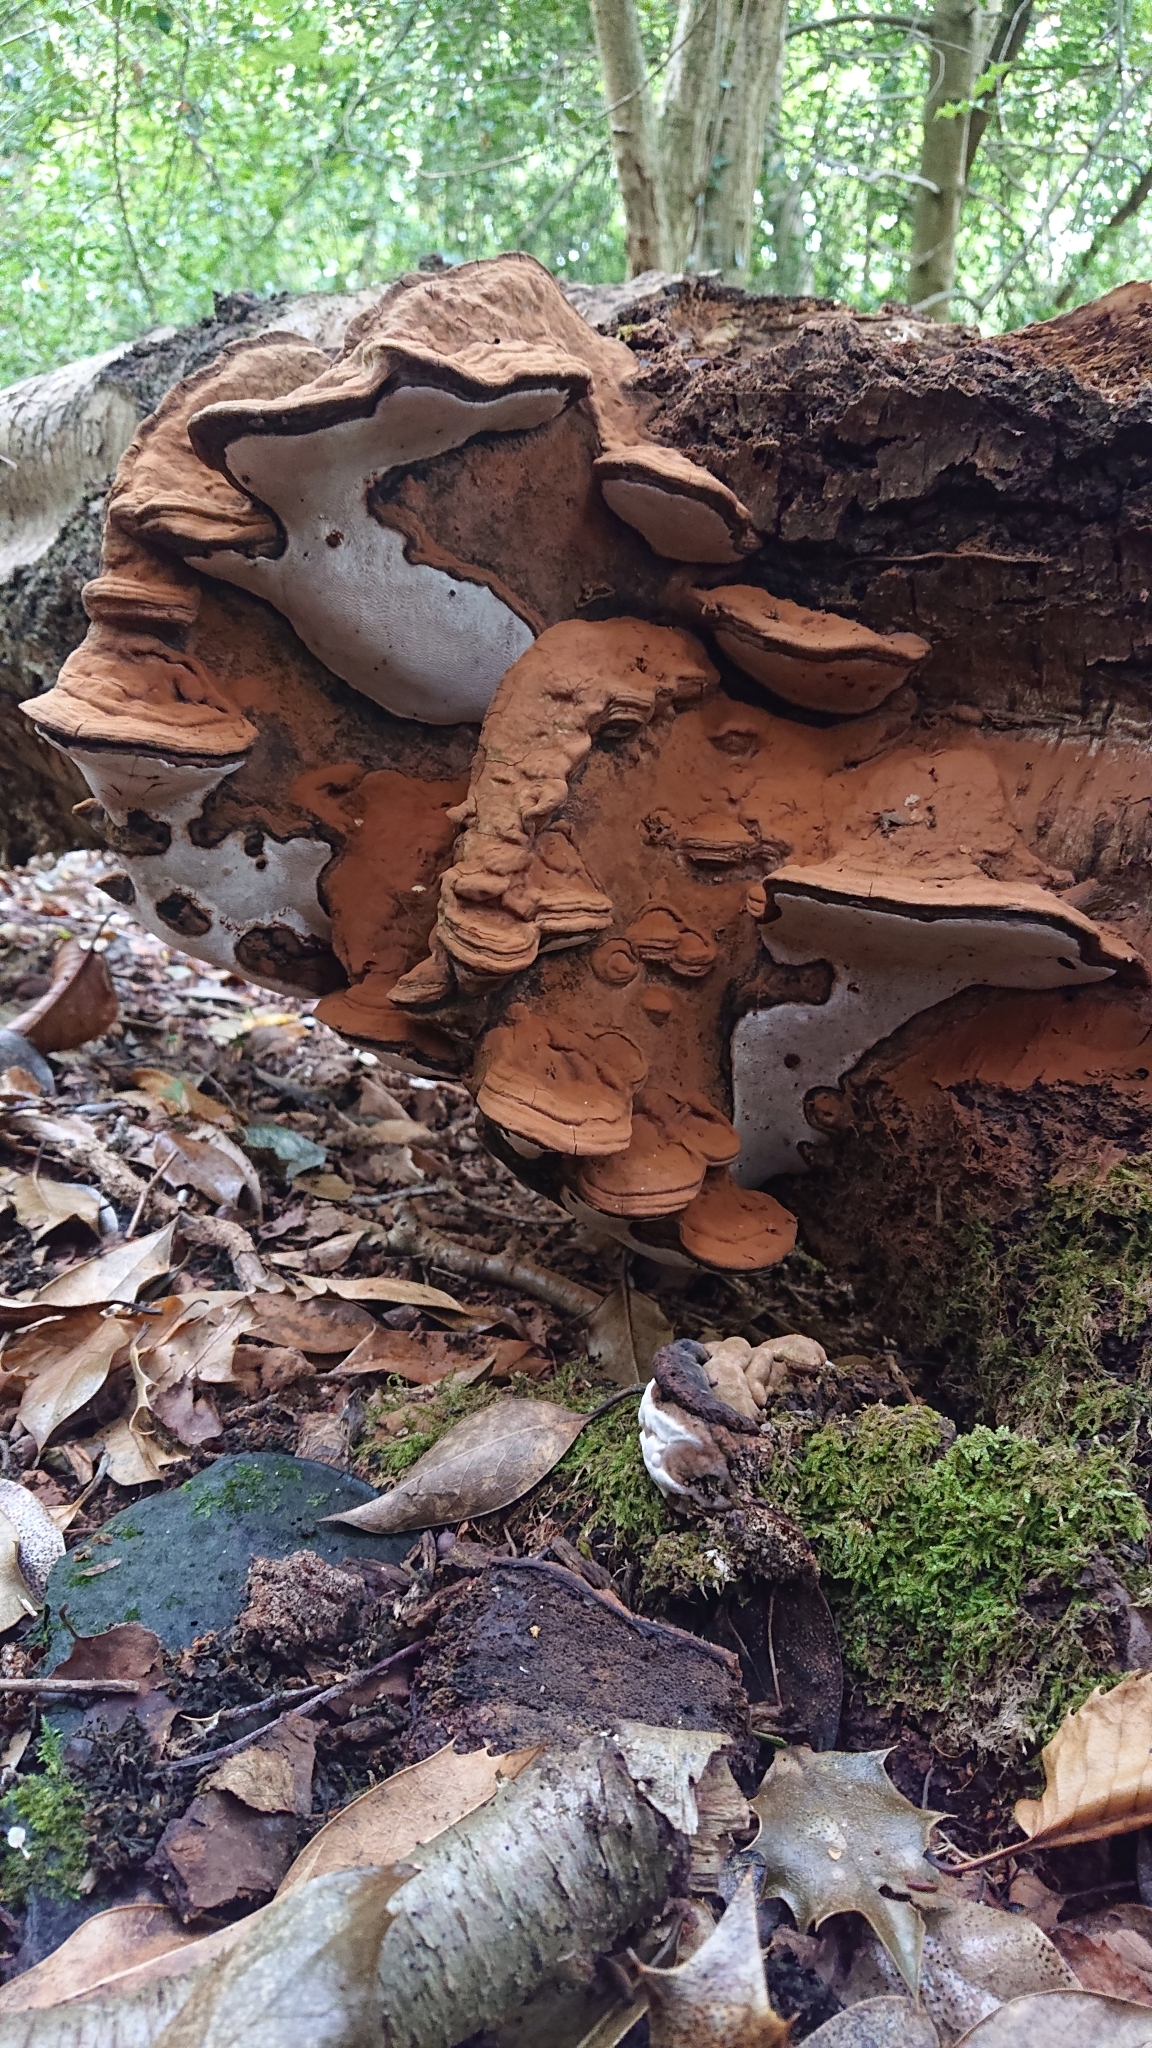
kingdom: Fungi
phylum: Basidiomycota
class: Agaricomycetes
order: Polyporales
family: Polyporaceae
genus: Ganoderma
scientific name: Ganoderma applanatum
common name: Artist's bracket
